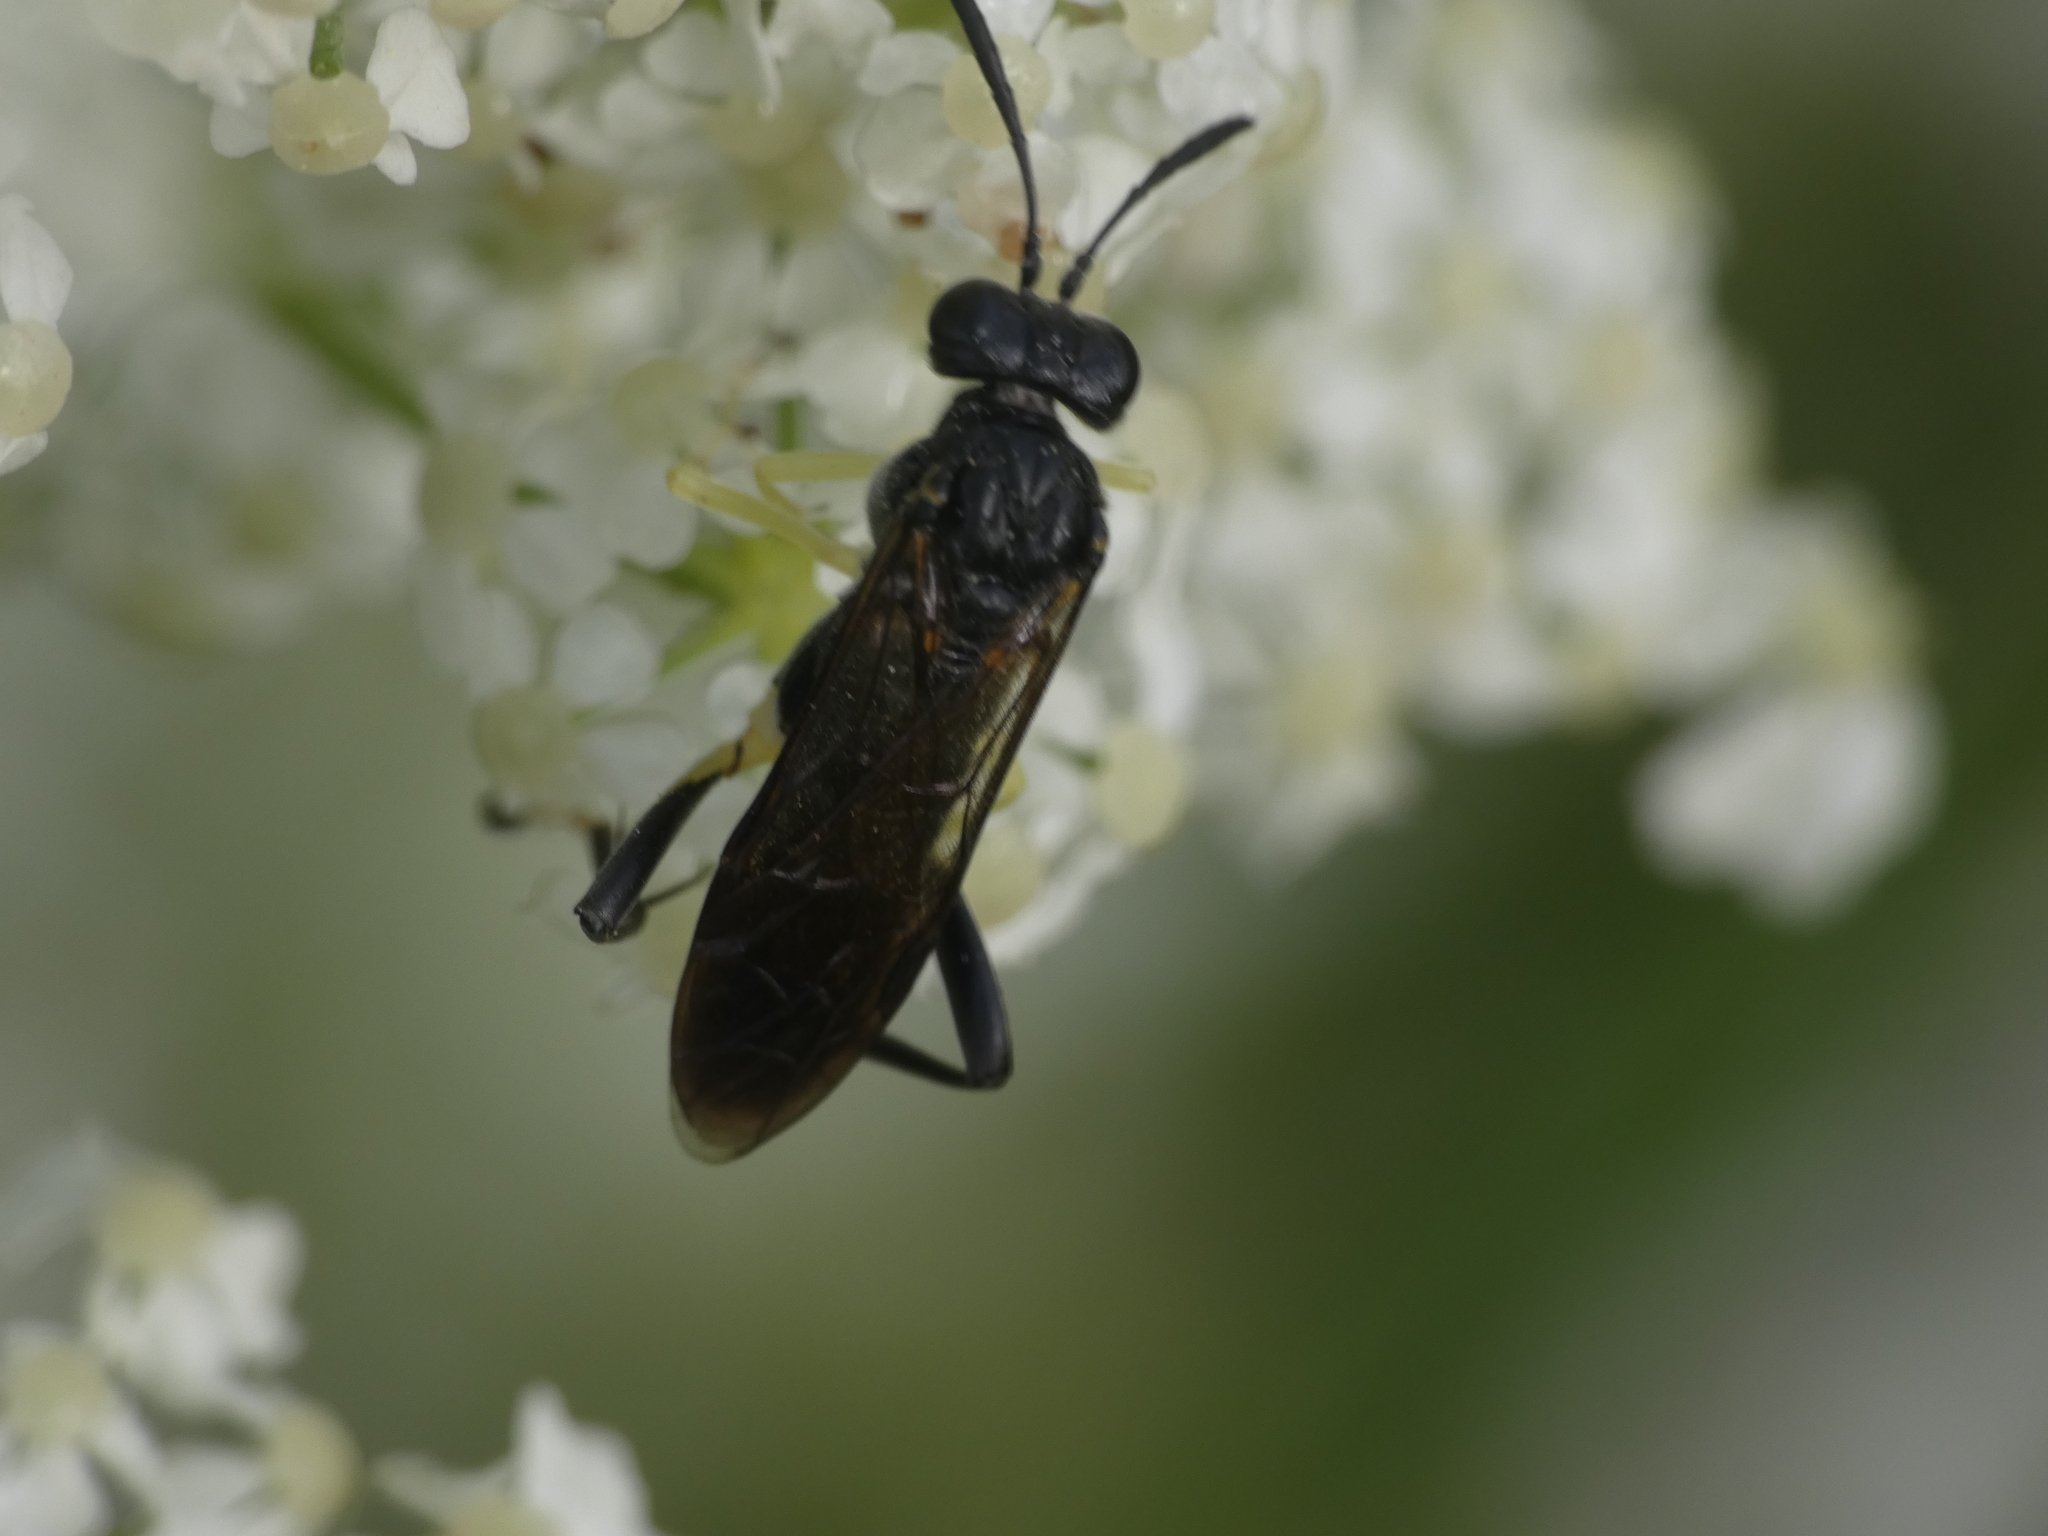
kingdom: Animalia
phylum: Arthropoda
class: Insecta
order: Hymenoptera
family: Tenthredinidae
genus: Macrophya
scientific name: Macrophya montana
